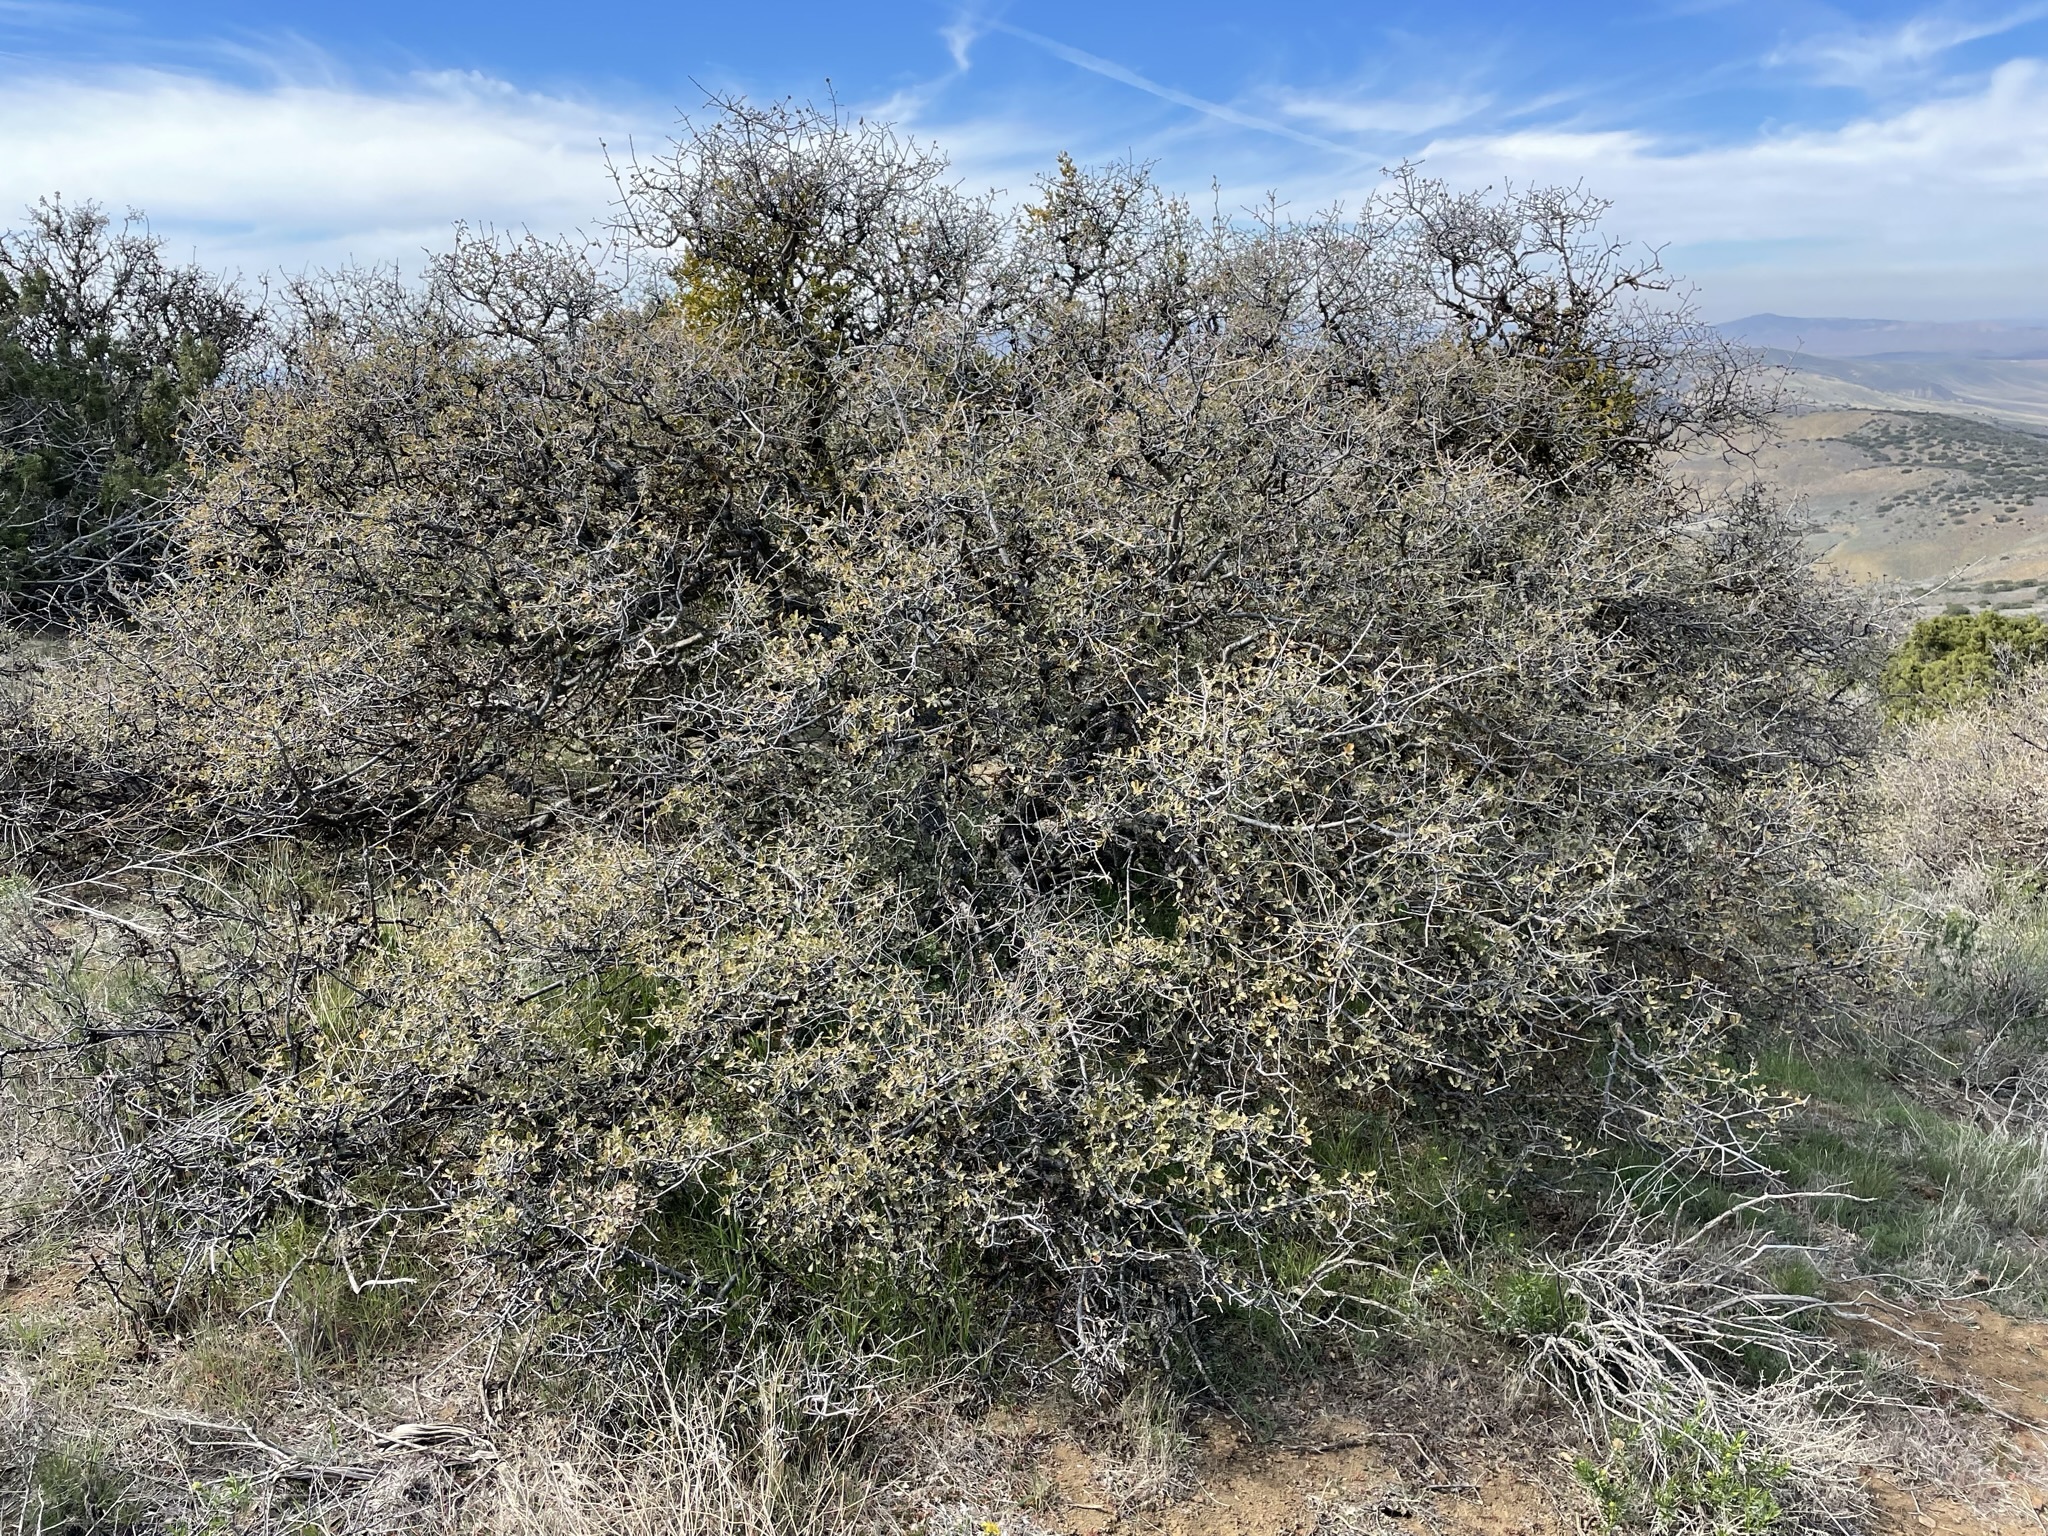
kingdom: Plantae
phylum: Tracheophyta
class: Magnoliopsida
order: Fagales
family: Fagaceae
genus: Quercus
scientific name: Quercus john-tuckeri
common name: Tucker's oak
